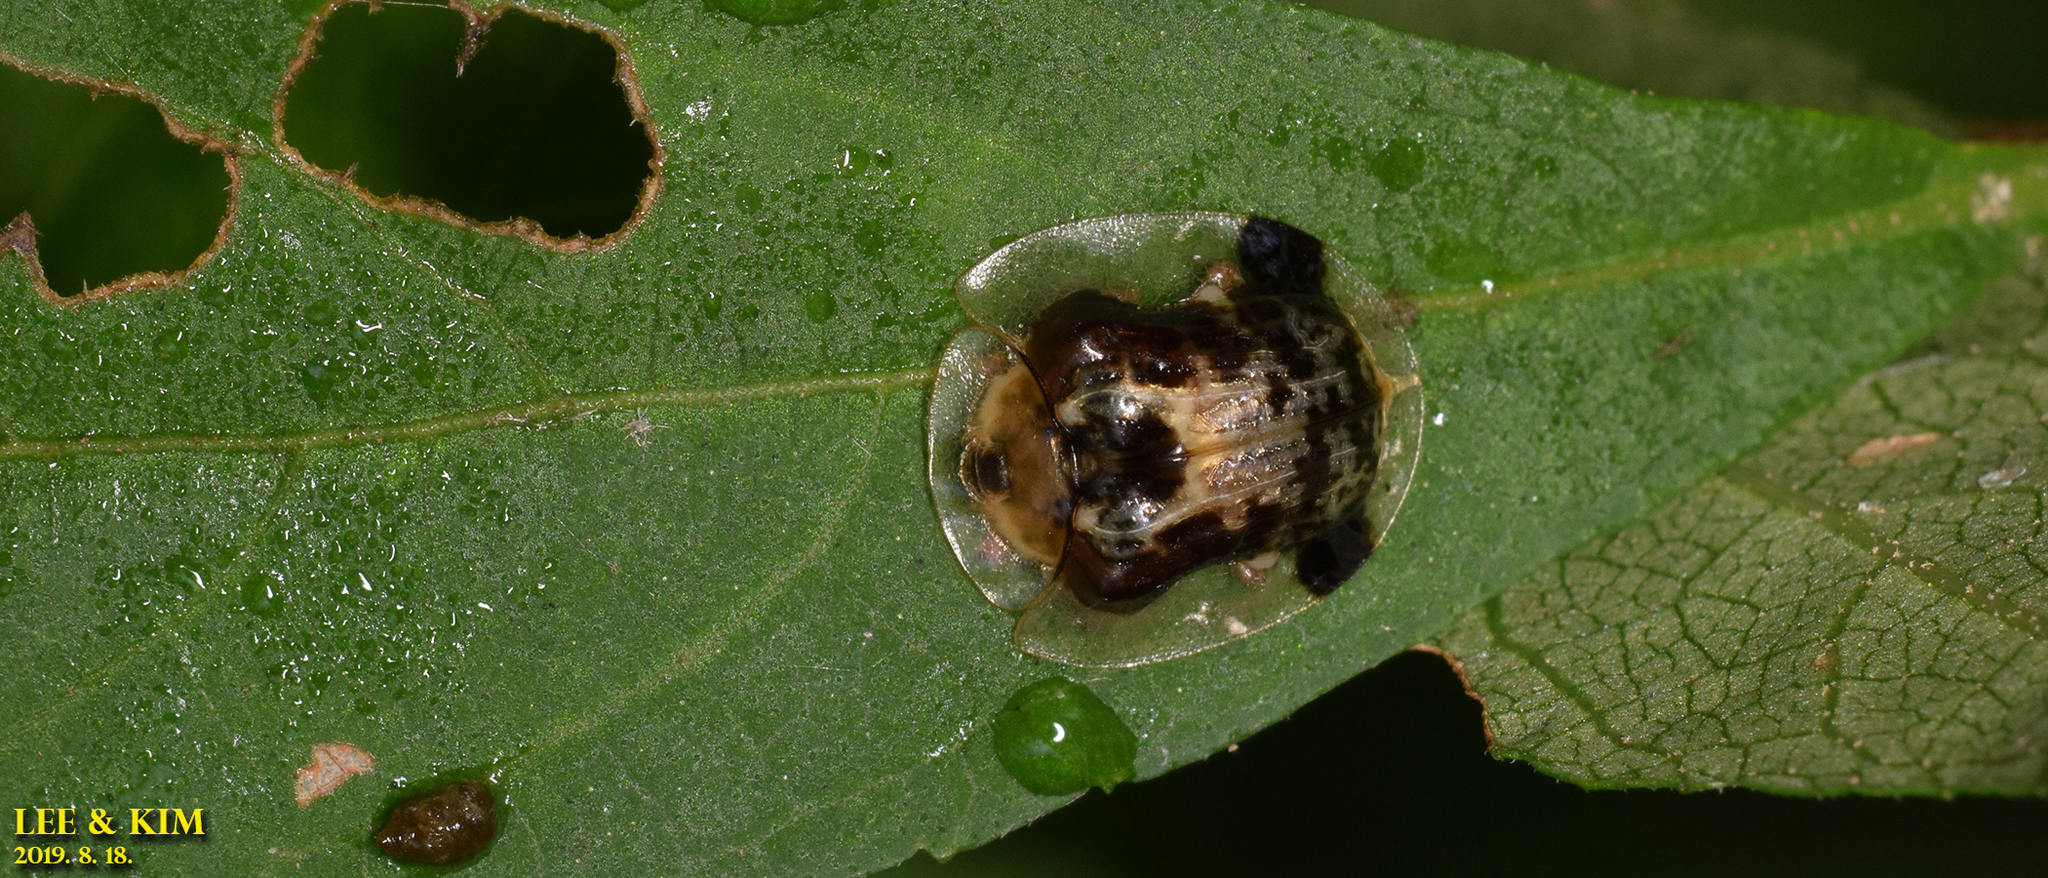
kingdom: Animalia
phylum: Arthropoda
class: Insecta
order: Coleoptera
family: Chrysomelidae
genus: Thlaspida
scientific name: Thlaspida biramosa
